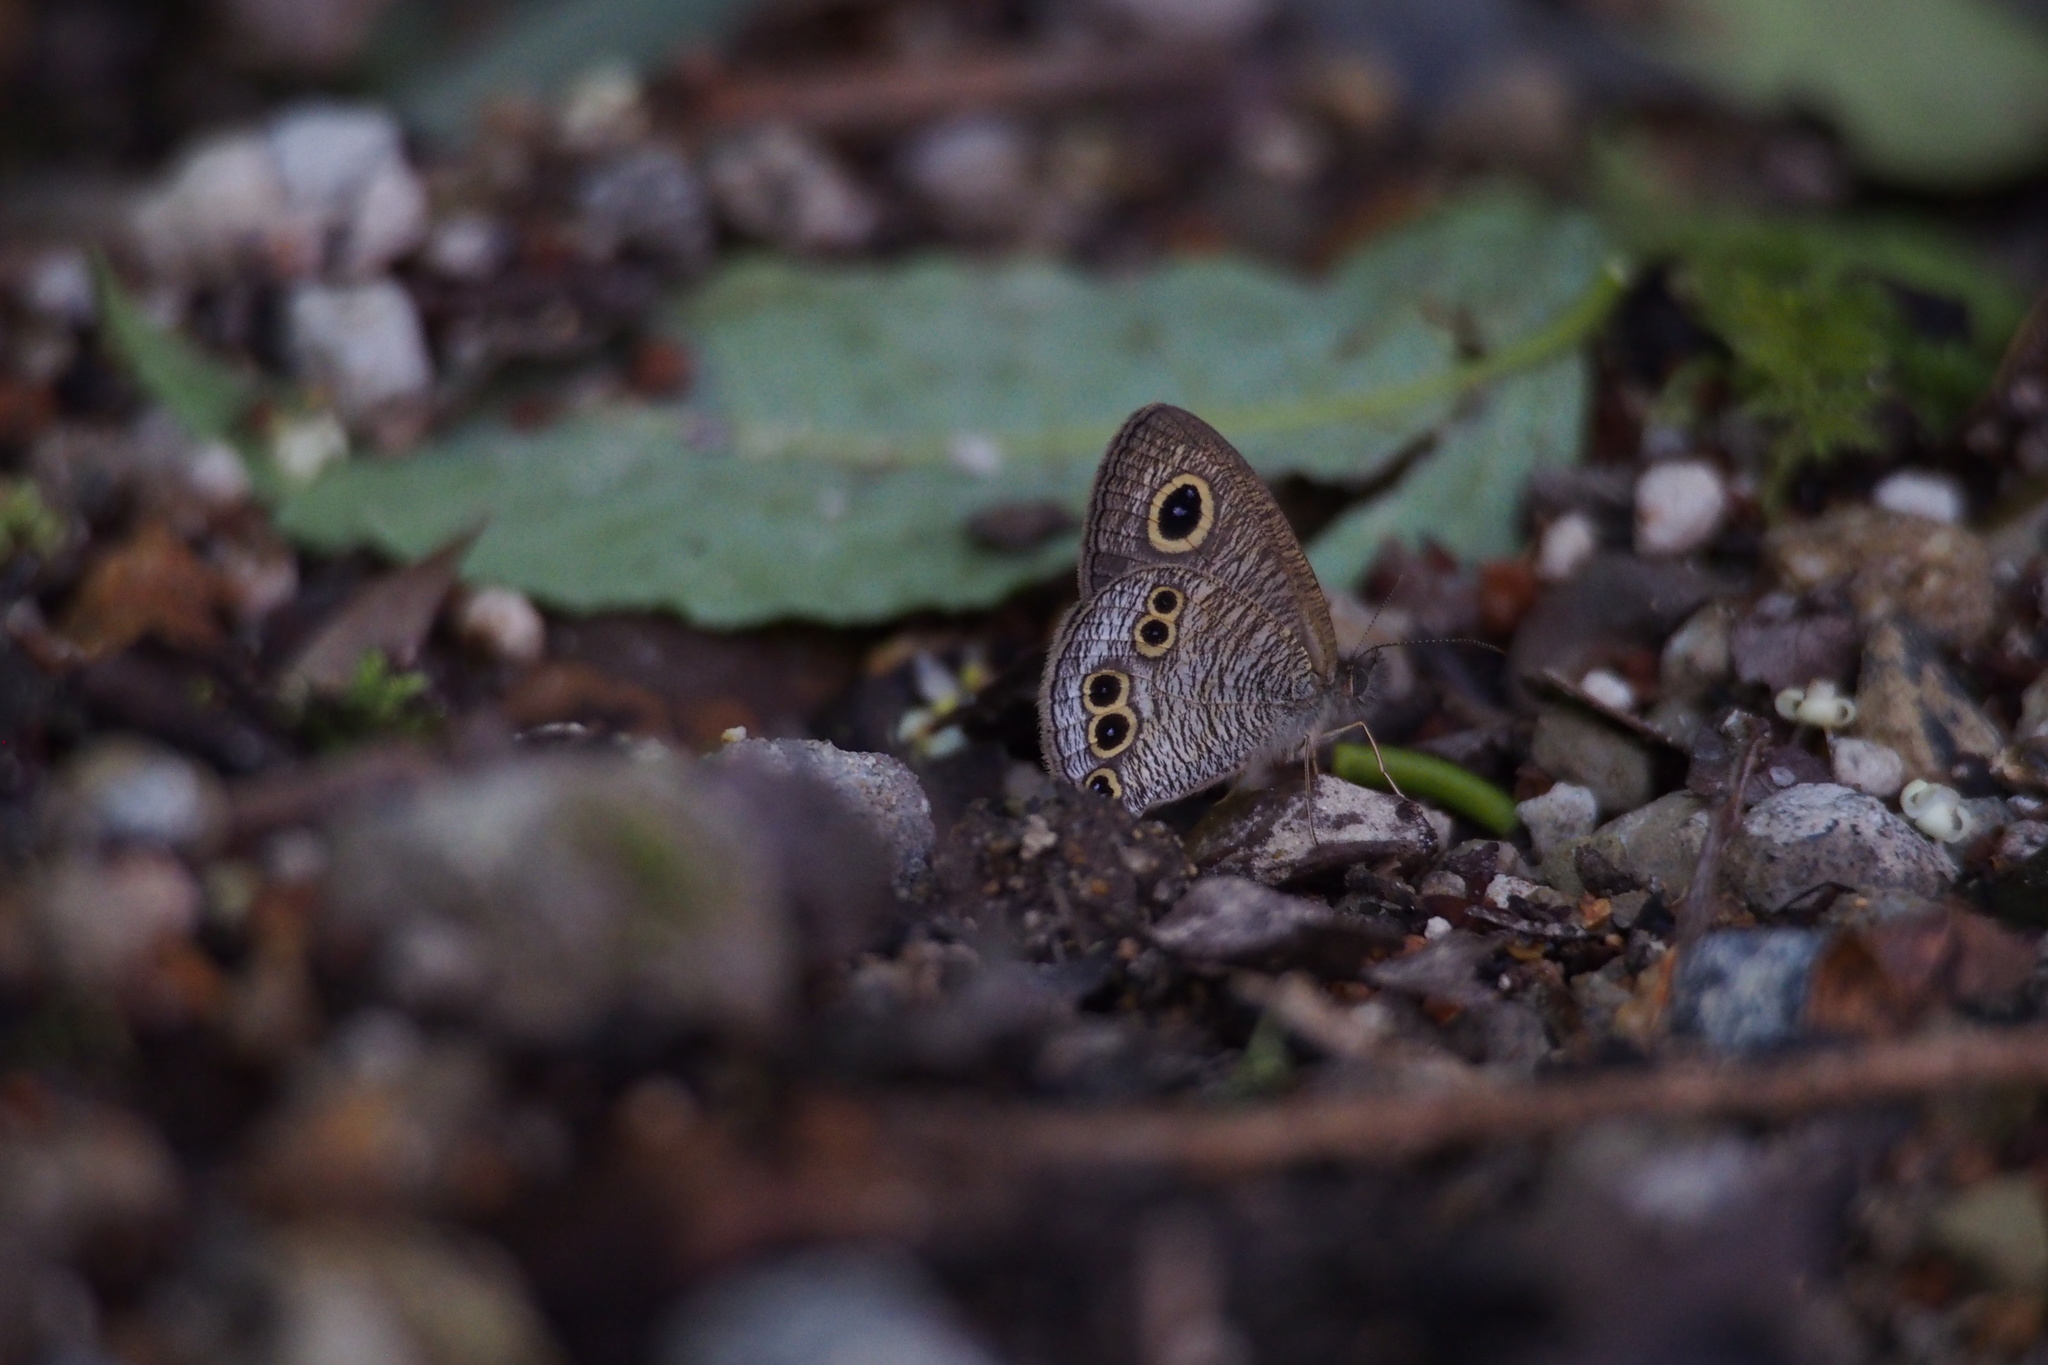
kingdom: Animalia
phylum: Arthropoda
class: Insecta
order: Lepidoptera
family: Nymphalidae
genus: Ypthima
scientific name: Ypthima argus
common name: Common fivering
